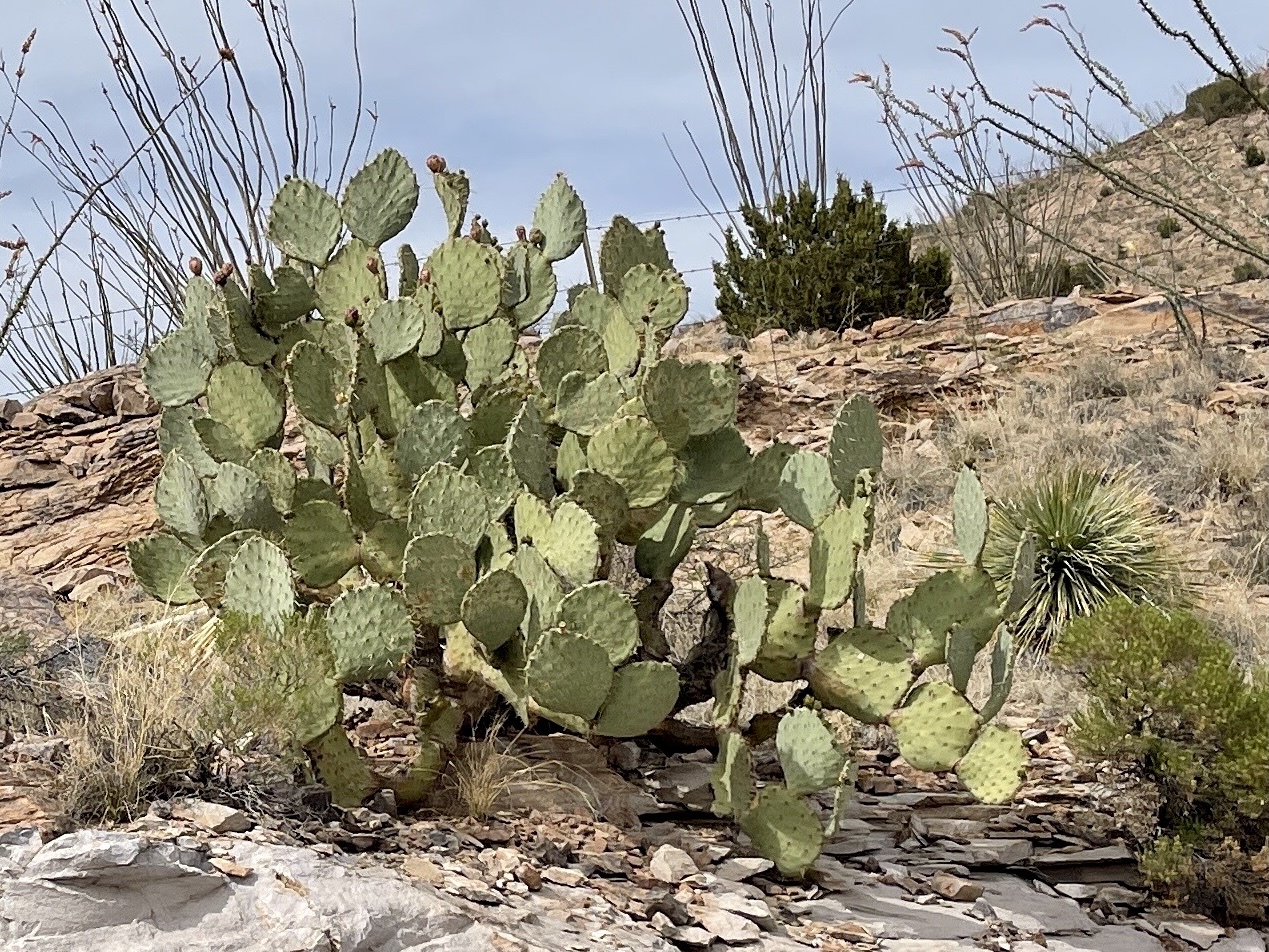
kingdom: Plantae
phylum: Tracheophyta
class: Magnoliopsida
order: Caryophyllales
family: Cactaceae
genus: Opuntia
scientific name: Opuntia engelmannii
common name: Cactus-apple
